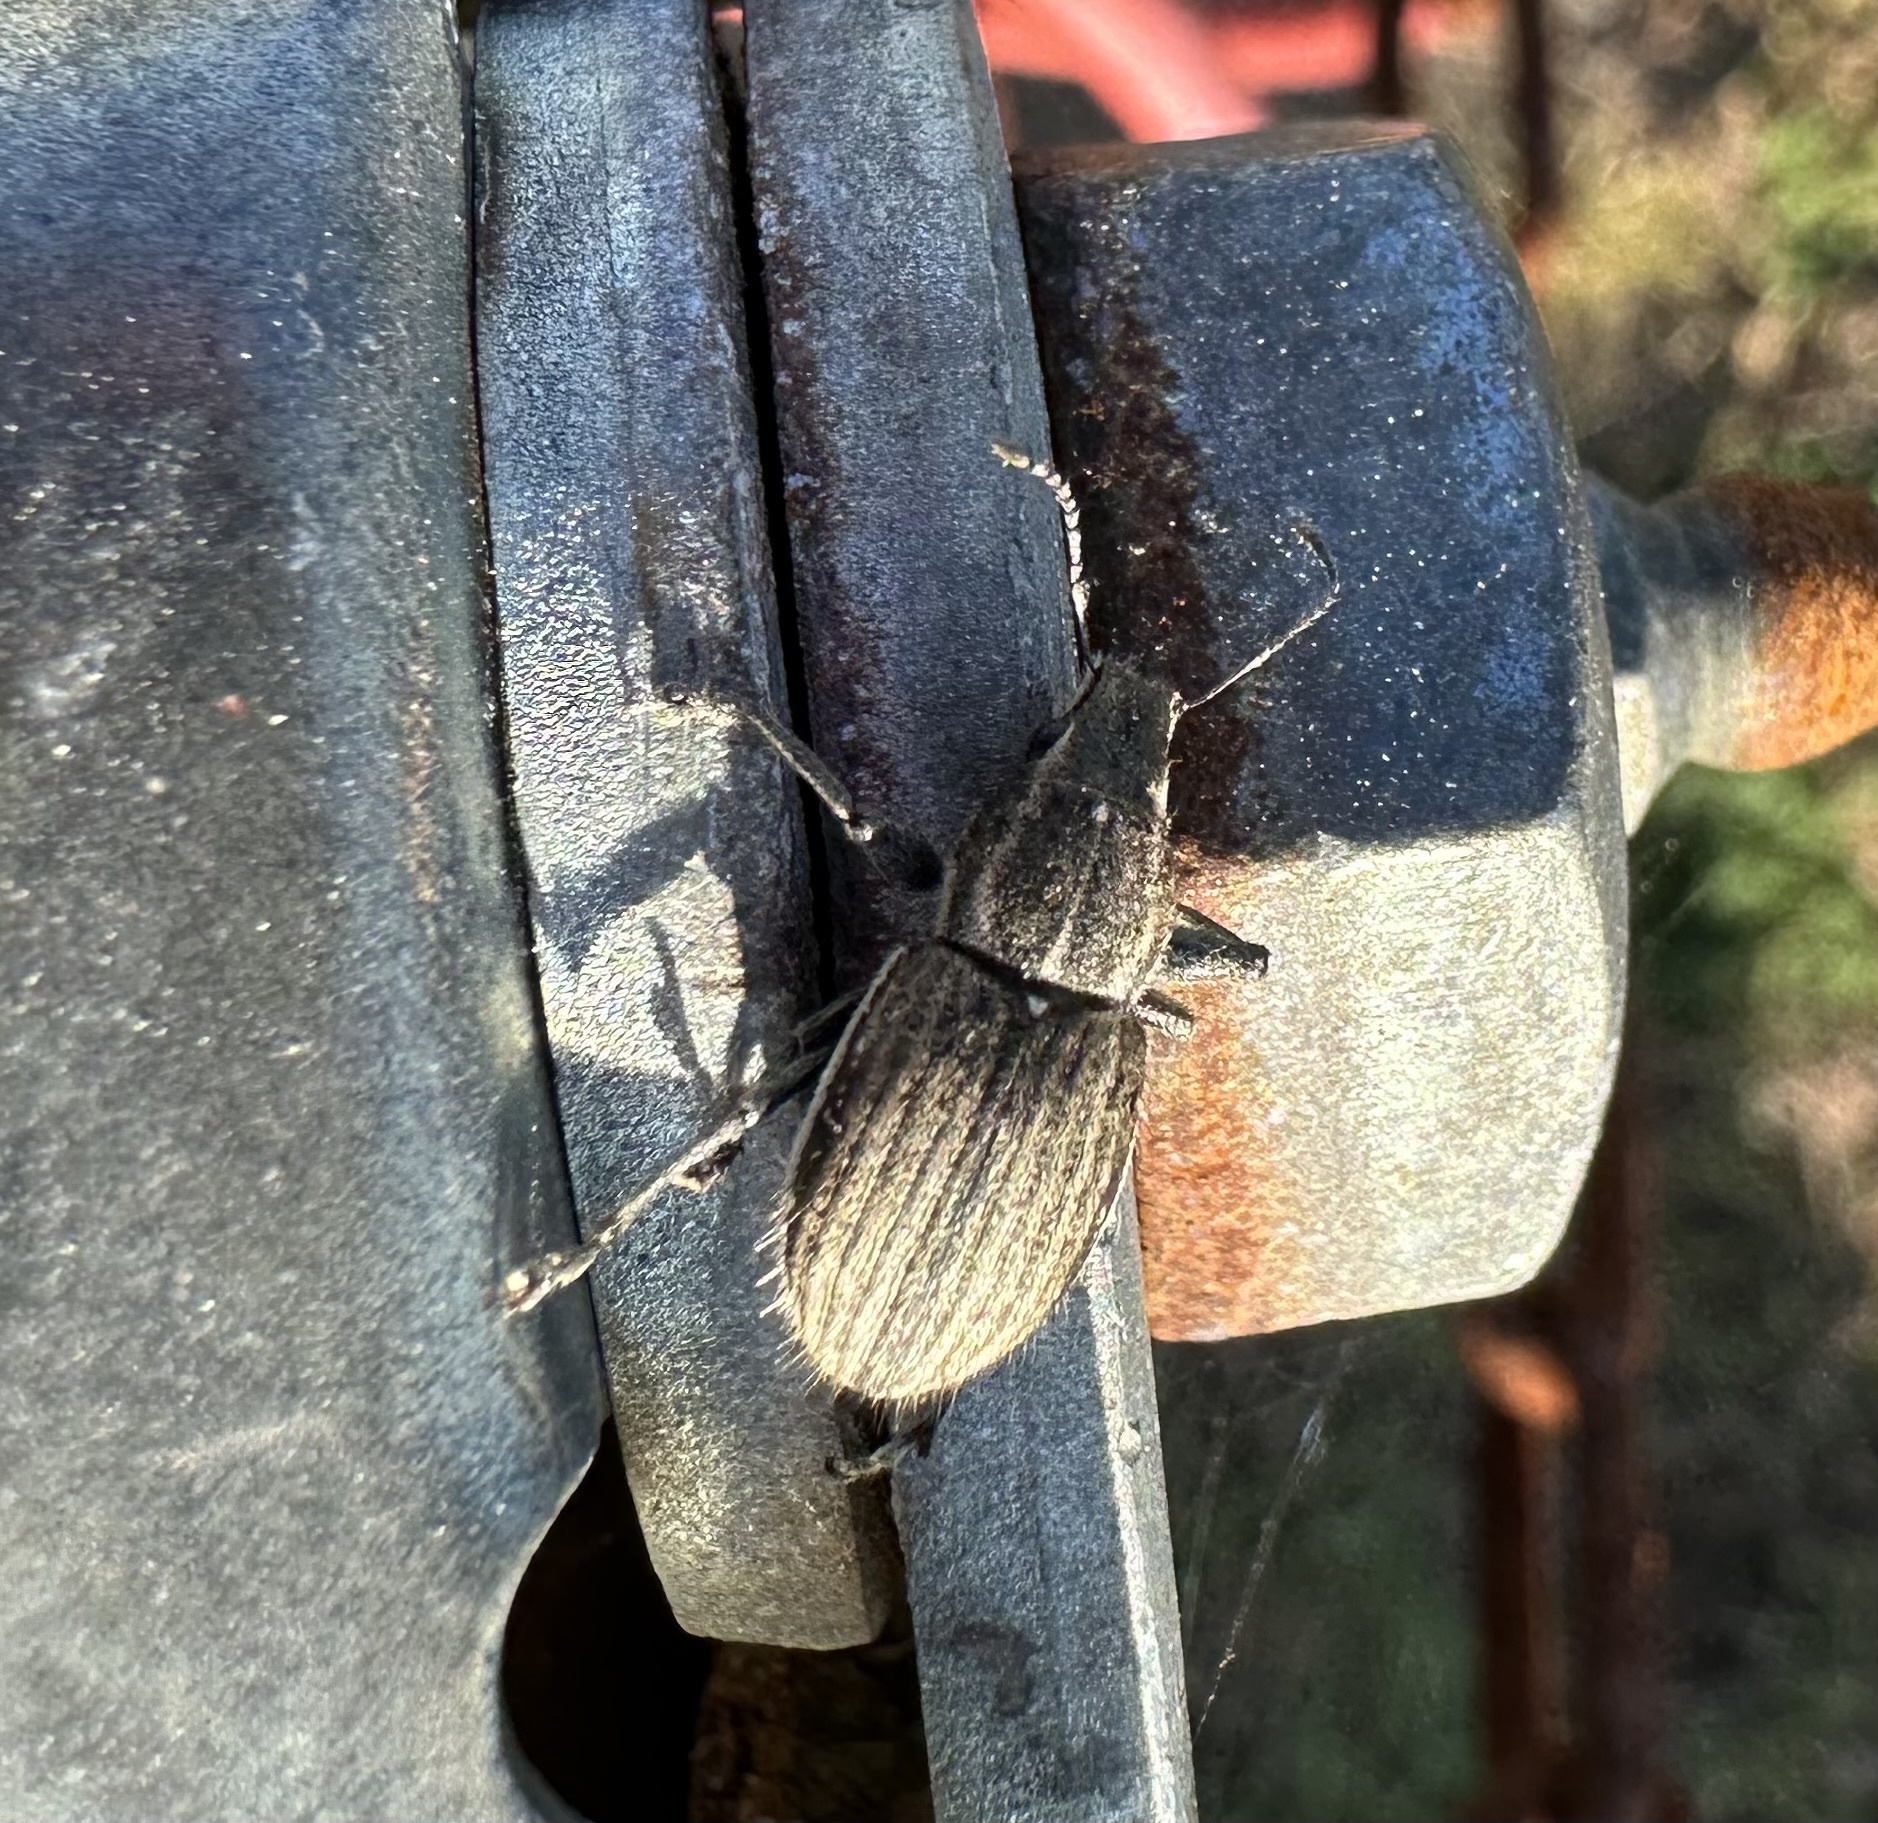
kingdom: Animalia
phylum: Arthropoda
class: Insecta
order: Coleoptera
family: Curculionidae
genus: Naupactus
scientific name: Naupactus leucoloma
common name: Whitefringed beetle
